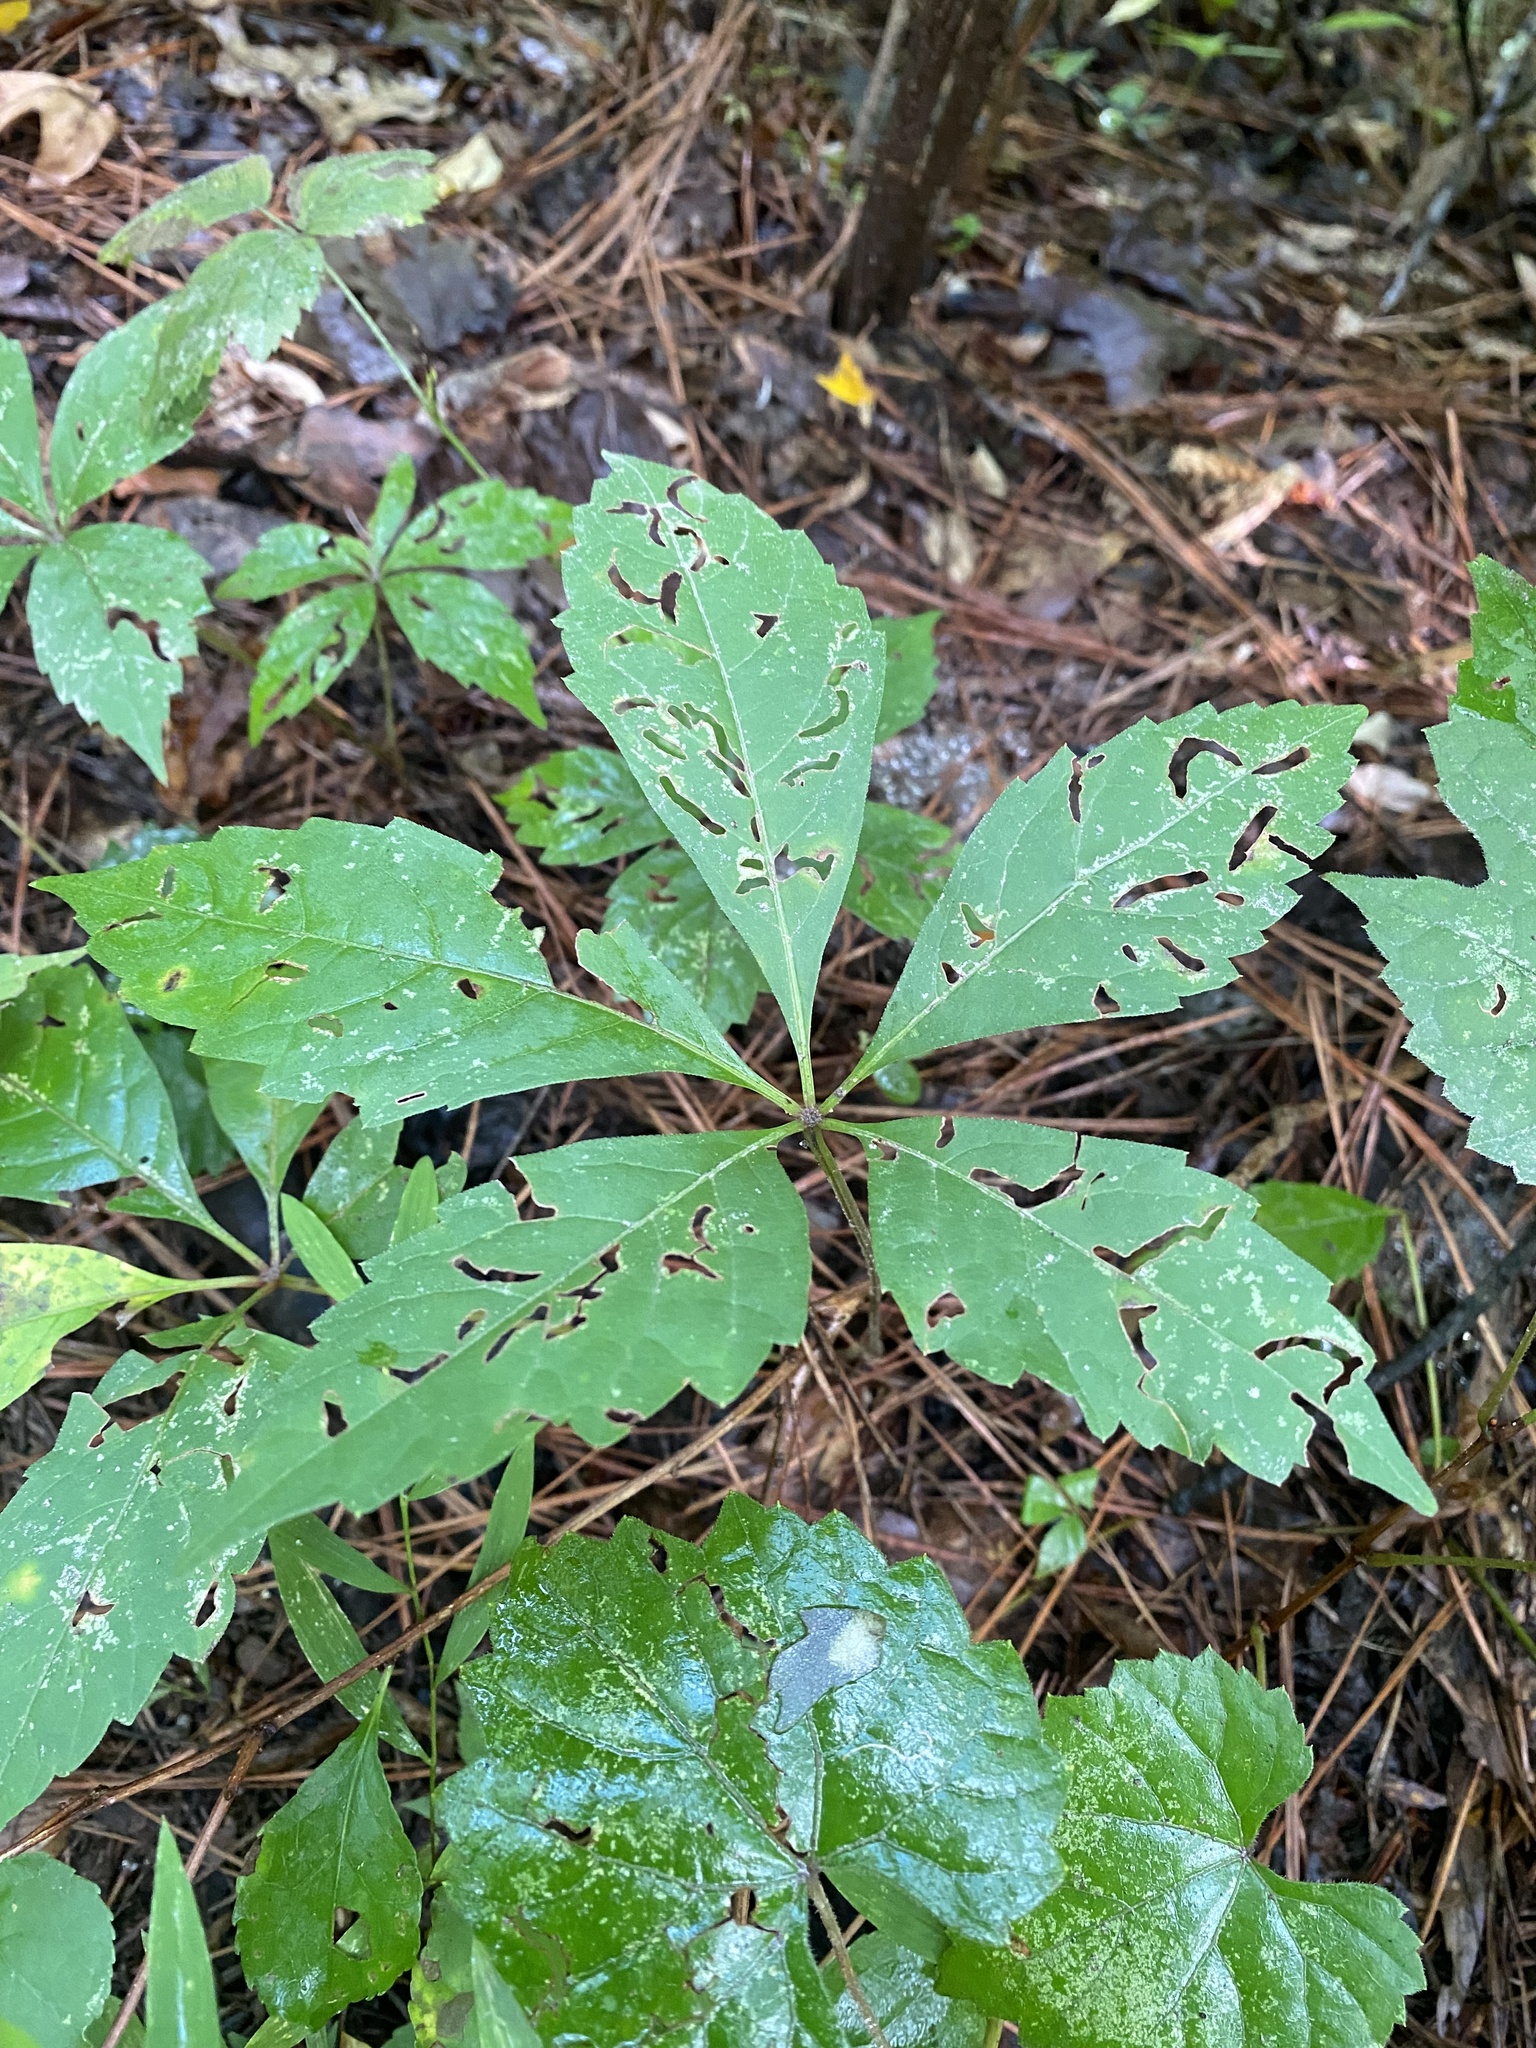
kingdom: Plantae
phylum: Tracheophyta
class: Magnoliopsida
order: Vitales
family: Vitaceae
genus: Parthenocissus
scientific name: Parthenocissus quinquefolia
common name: Virginia-creeper
